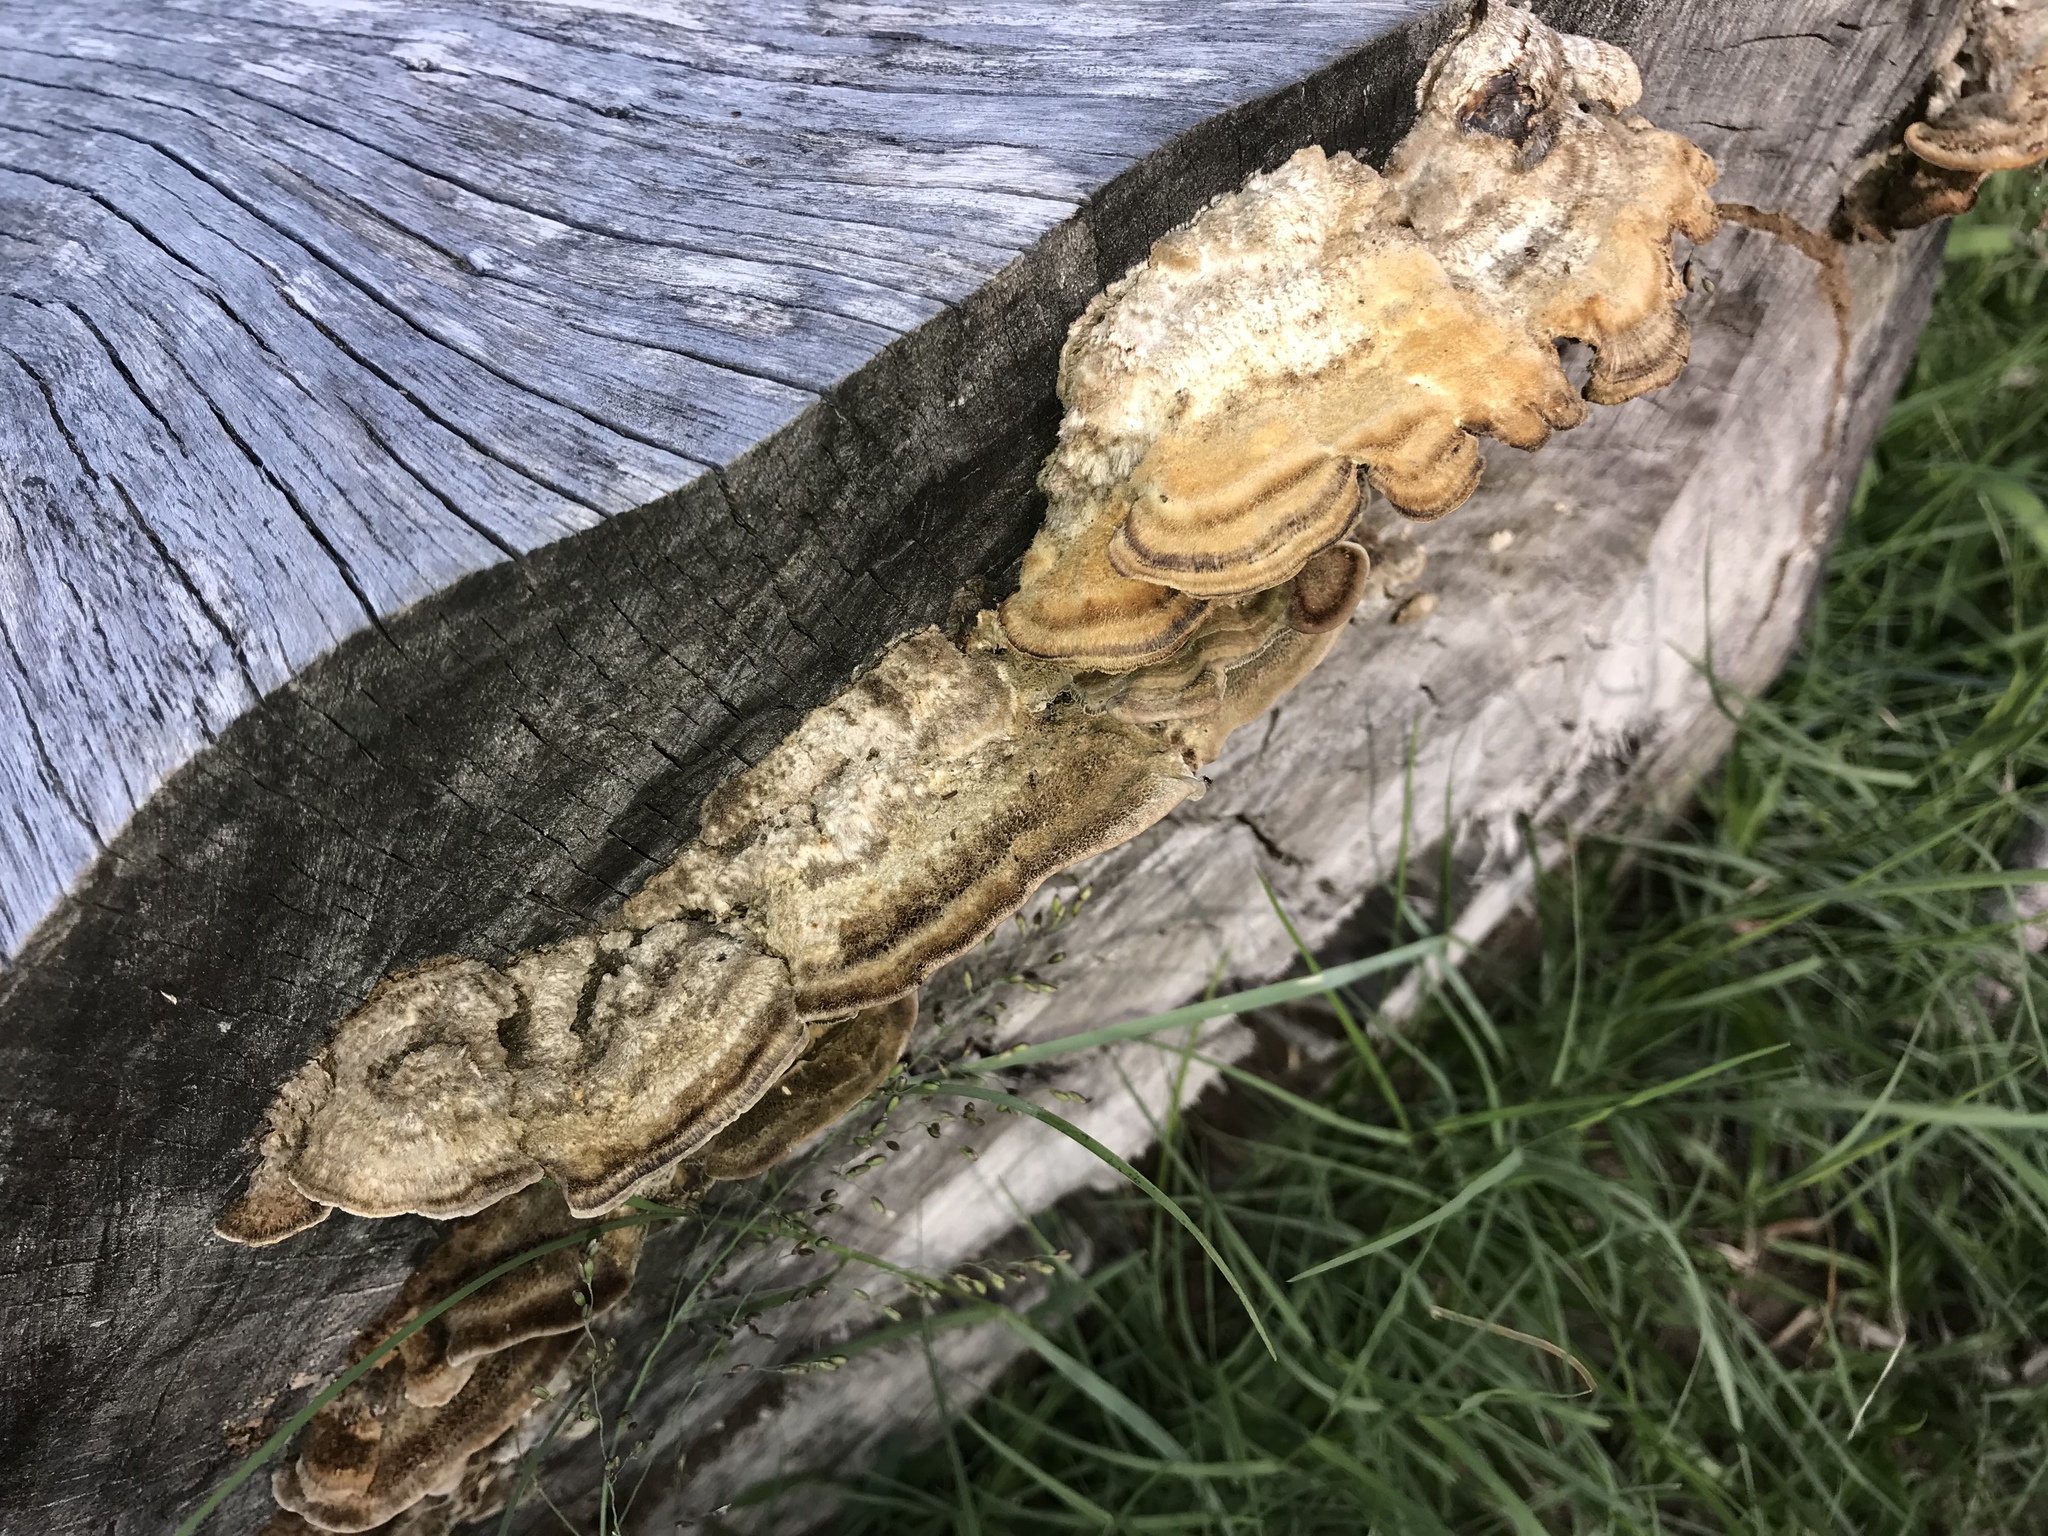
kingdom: Fungi
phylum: Basidiomycota
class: Agaricomycetes
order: Polyporales
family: Polyporaceae
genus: Trametes
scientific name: Trametes versicolor
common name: Turkeytail
